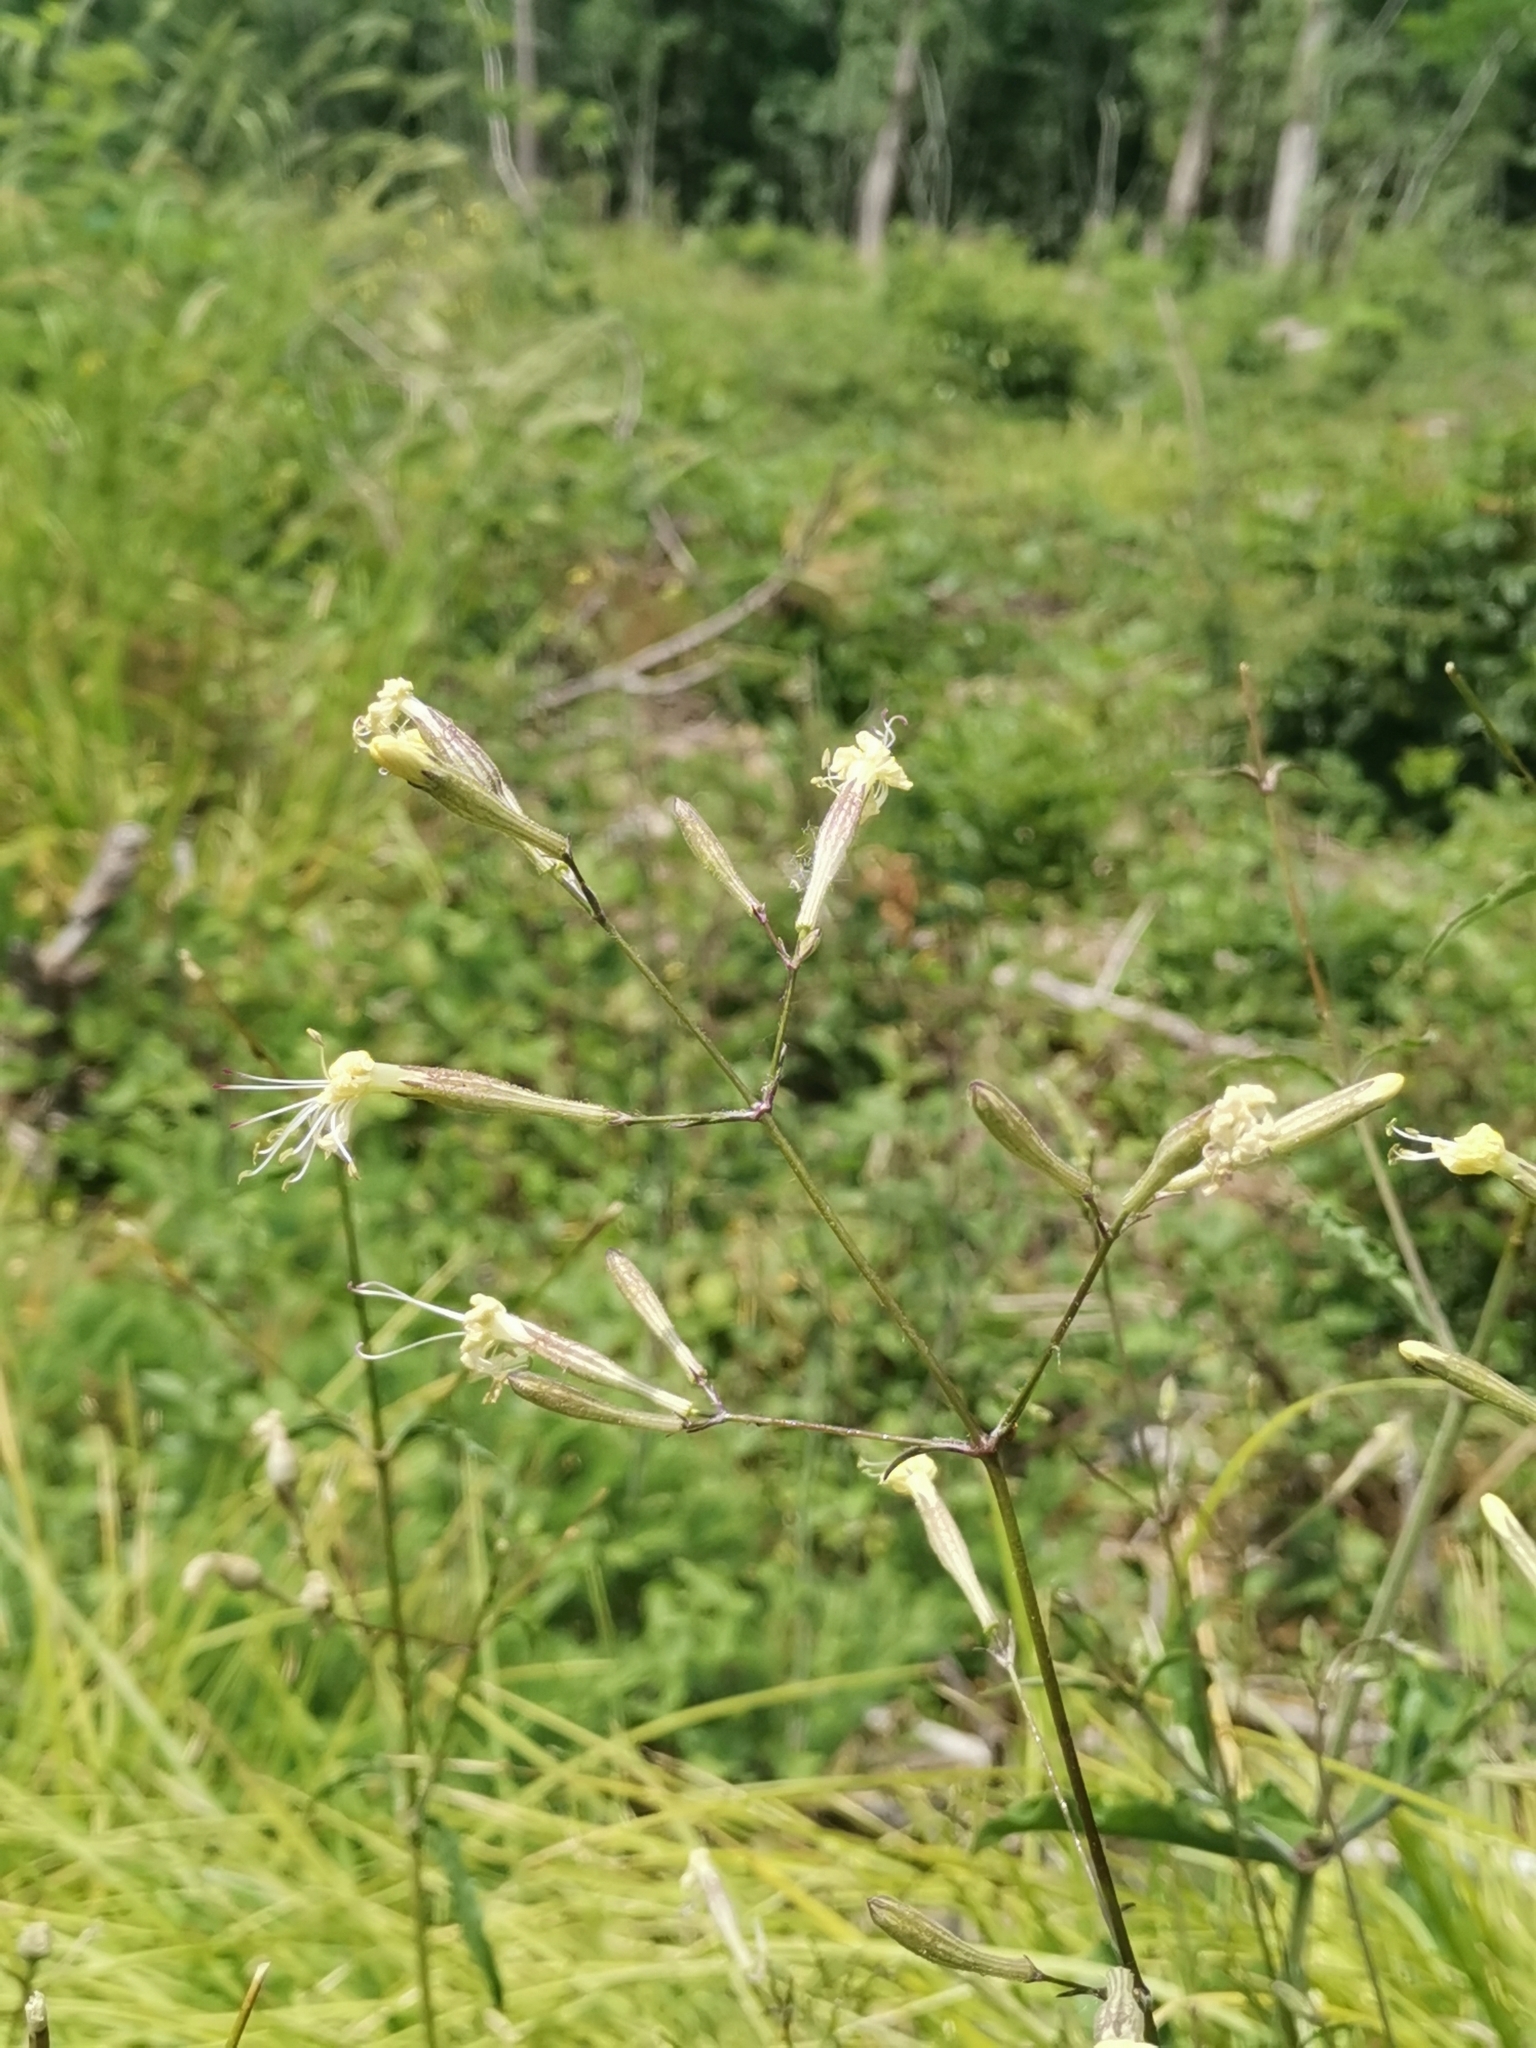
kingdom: Plantae
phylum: Tracheophyta
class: Magnoliopsida
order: Caryophyllales
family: Caryophyllaceae
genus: Silene
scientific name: Silene italica
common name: Italian catchfly
